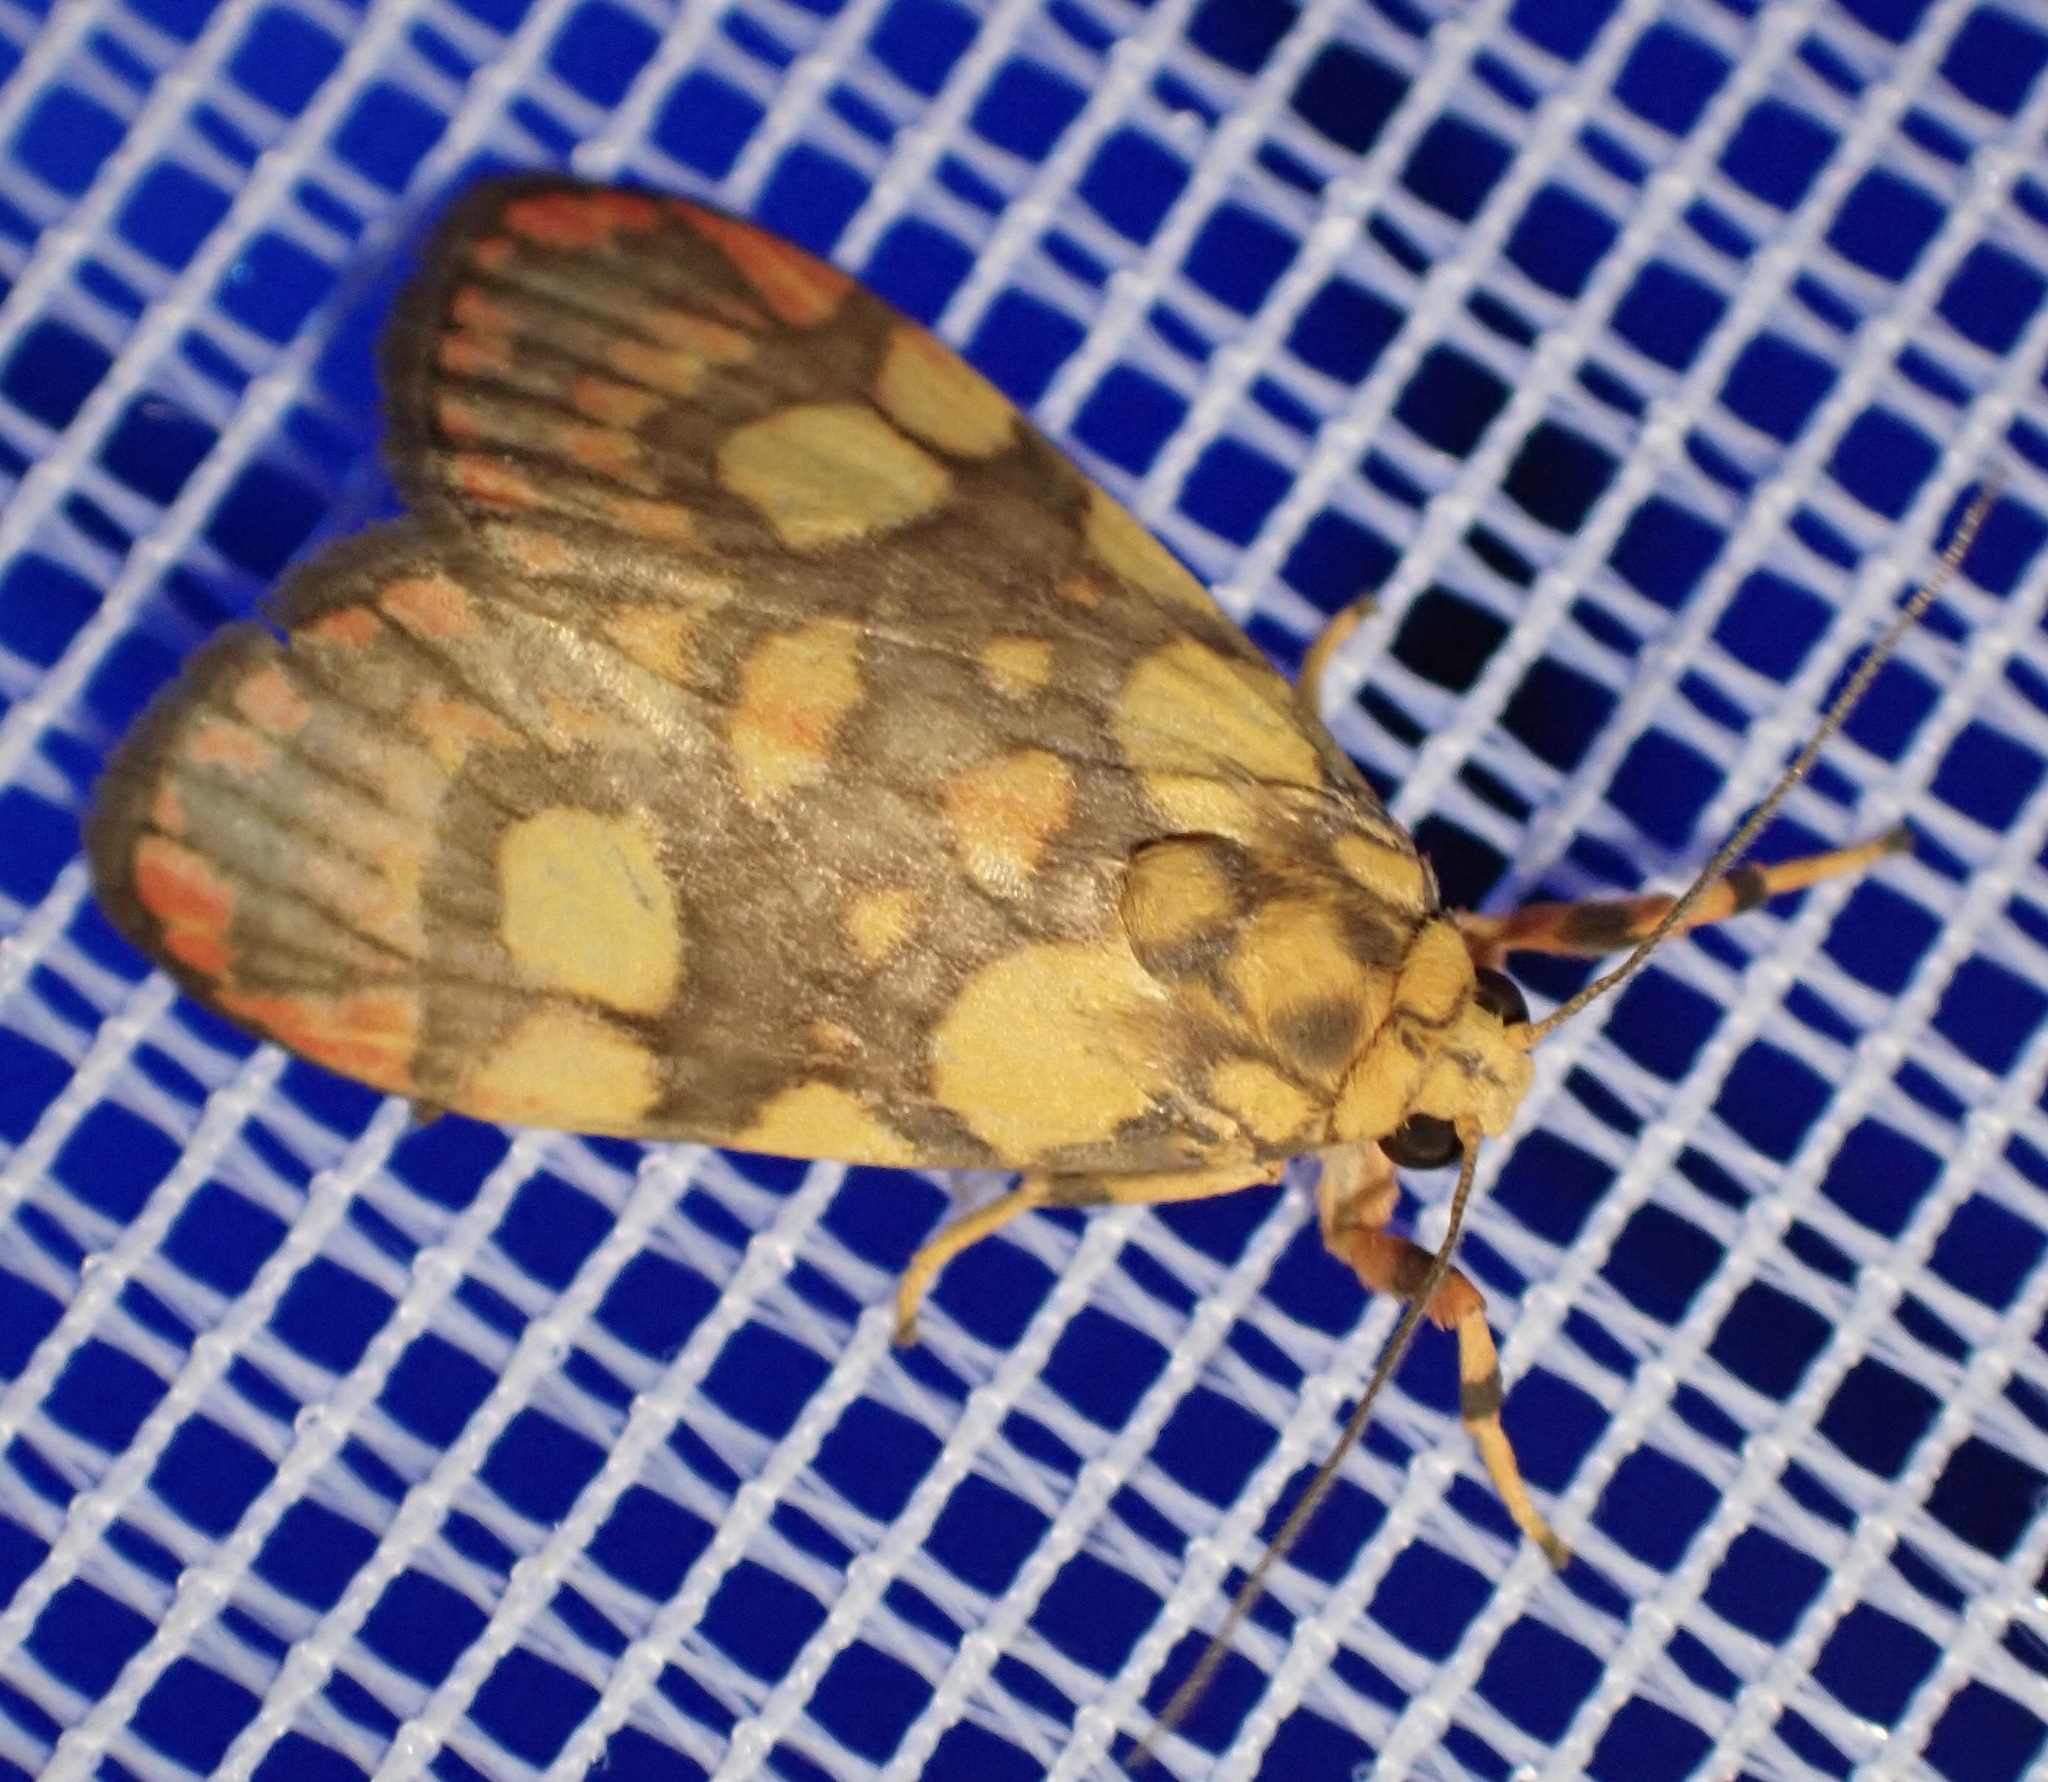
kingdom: Animalia
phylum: Arthropoda
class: Insecta
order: Lepidoptera
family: Erebidae
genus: Cyme
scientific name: Cyme laeta
